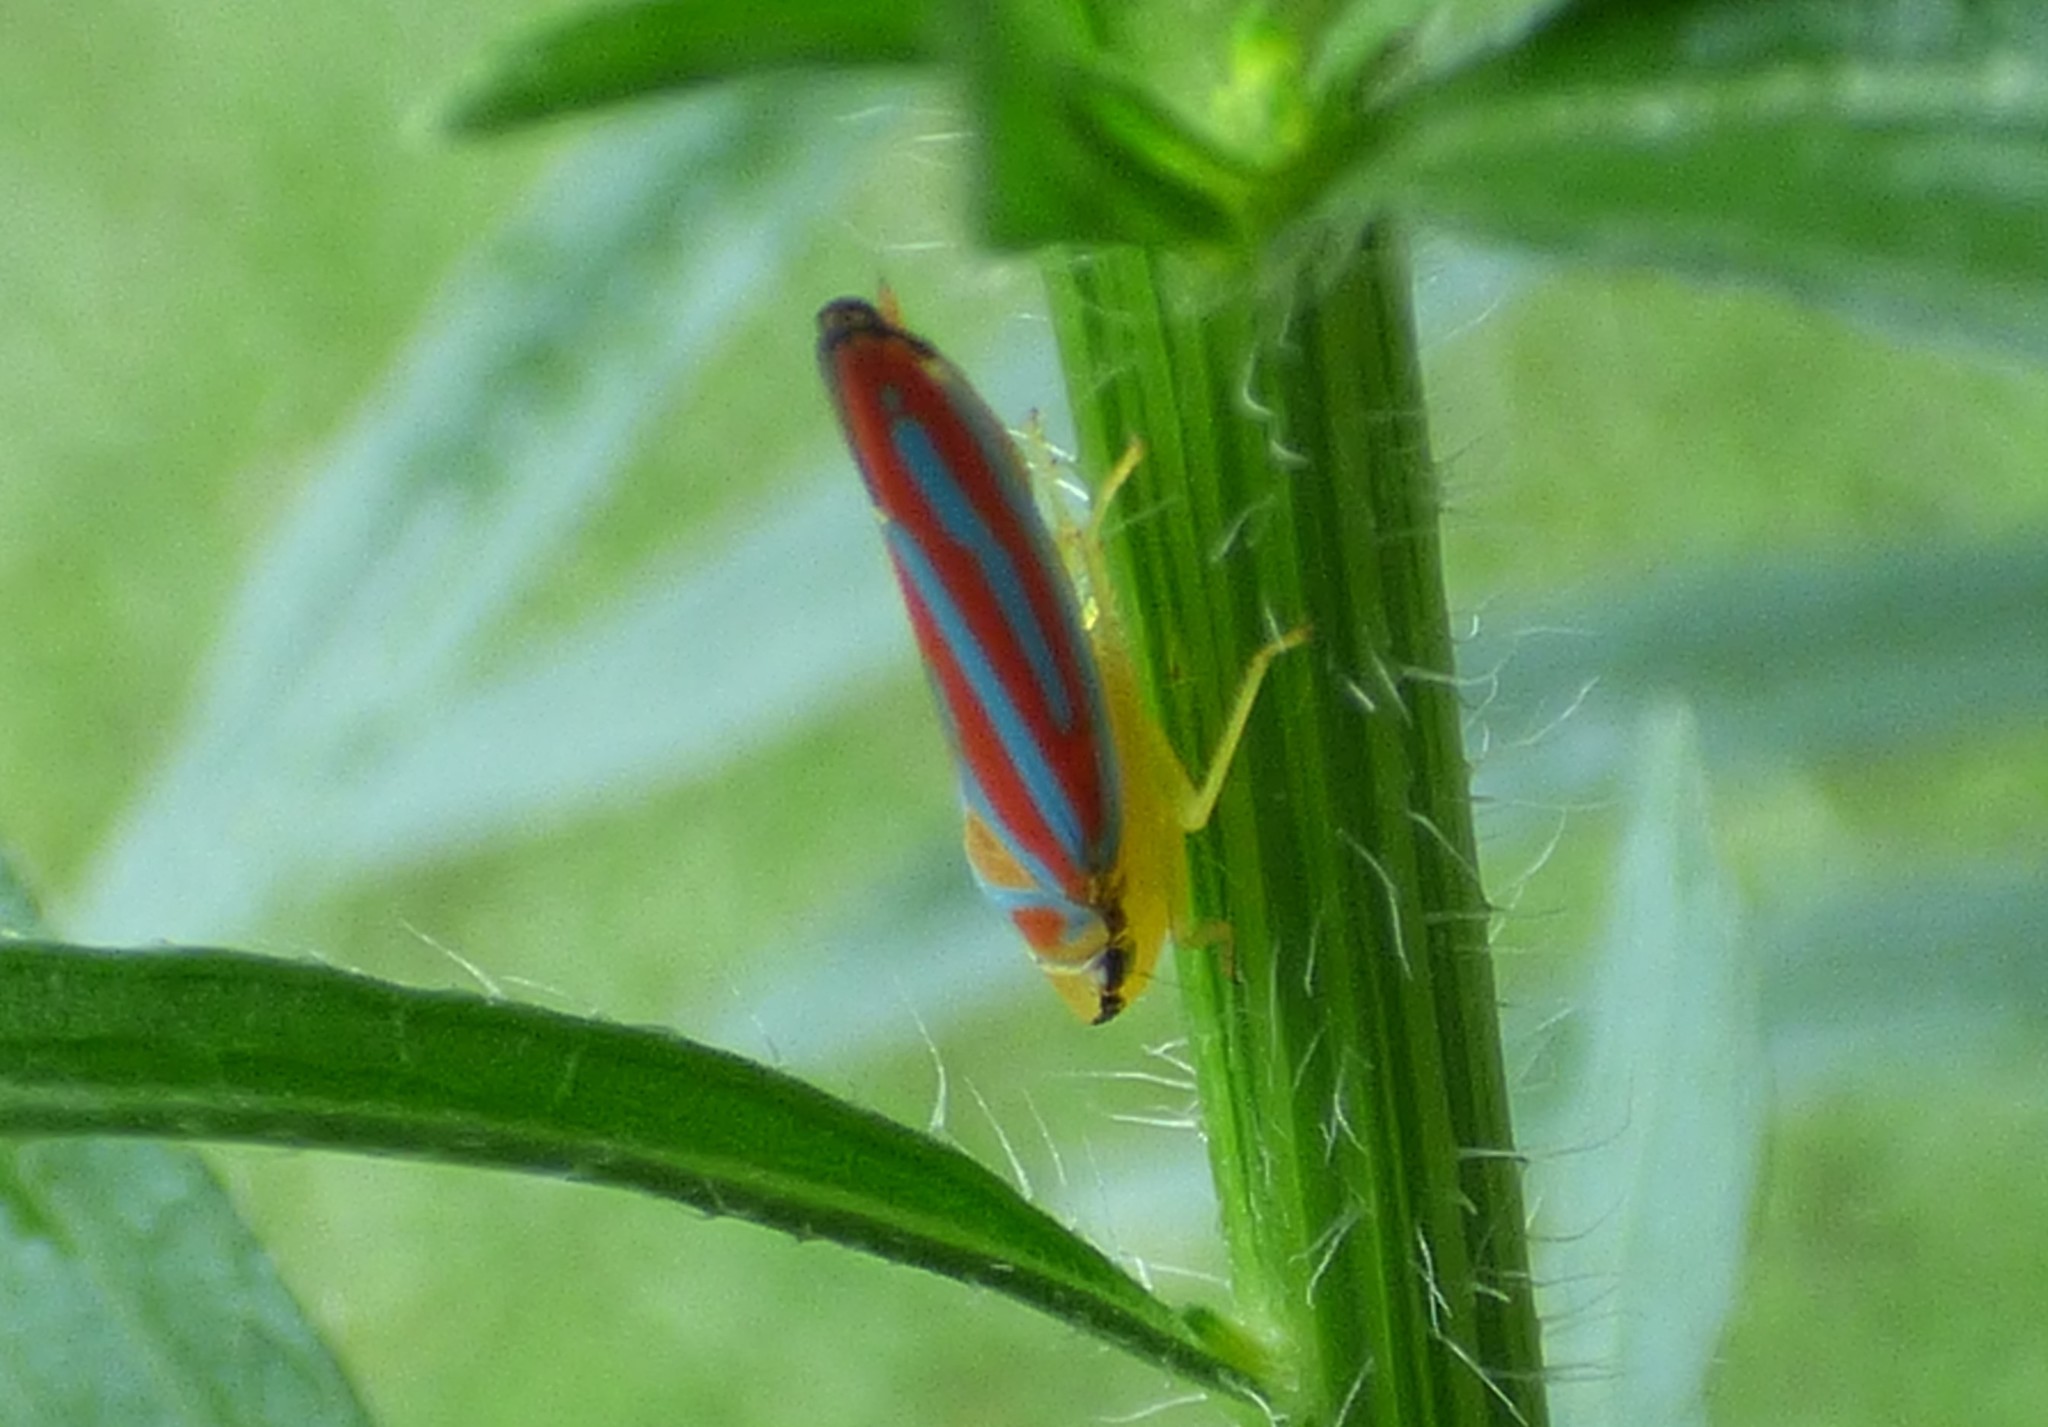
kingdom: Animalia
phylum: Arthropoda
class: Insecta
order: Hemiptera
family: Cicadellidae
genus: Graphocephala
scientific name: Graphocephala coccinea
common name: Candy-striped leafhopper
